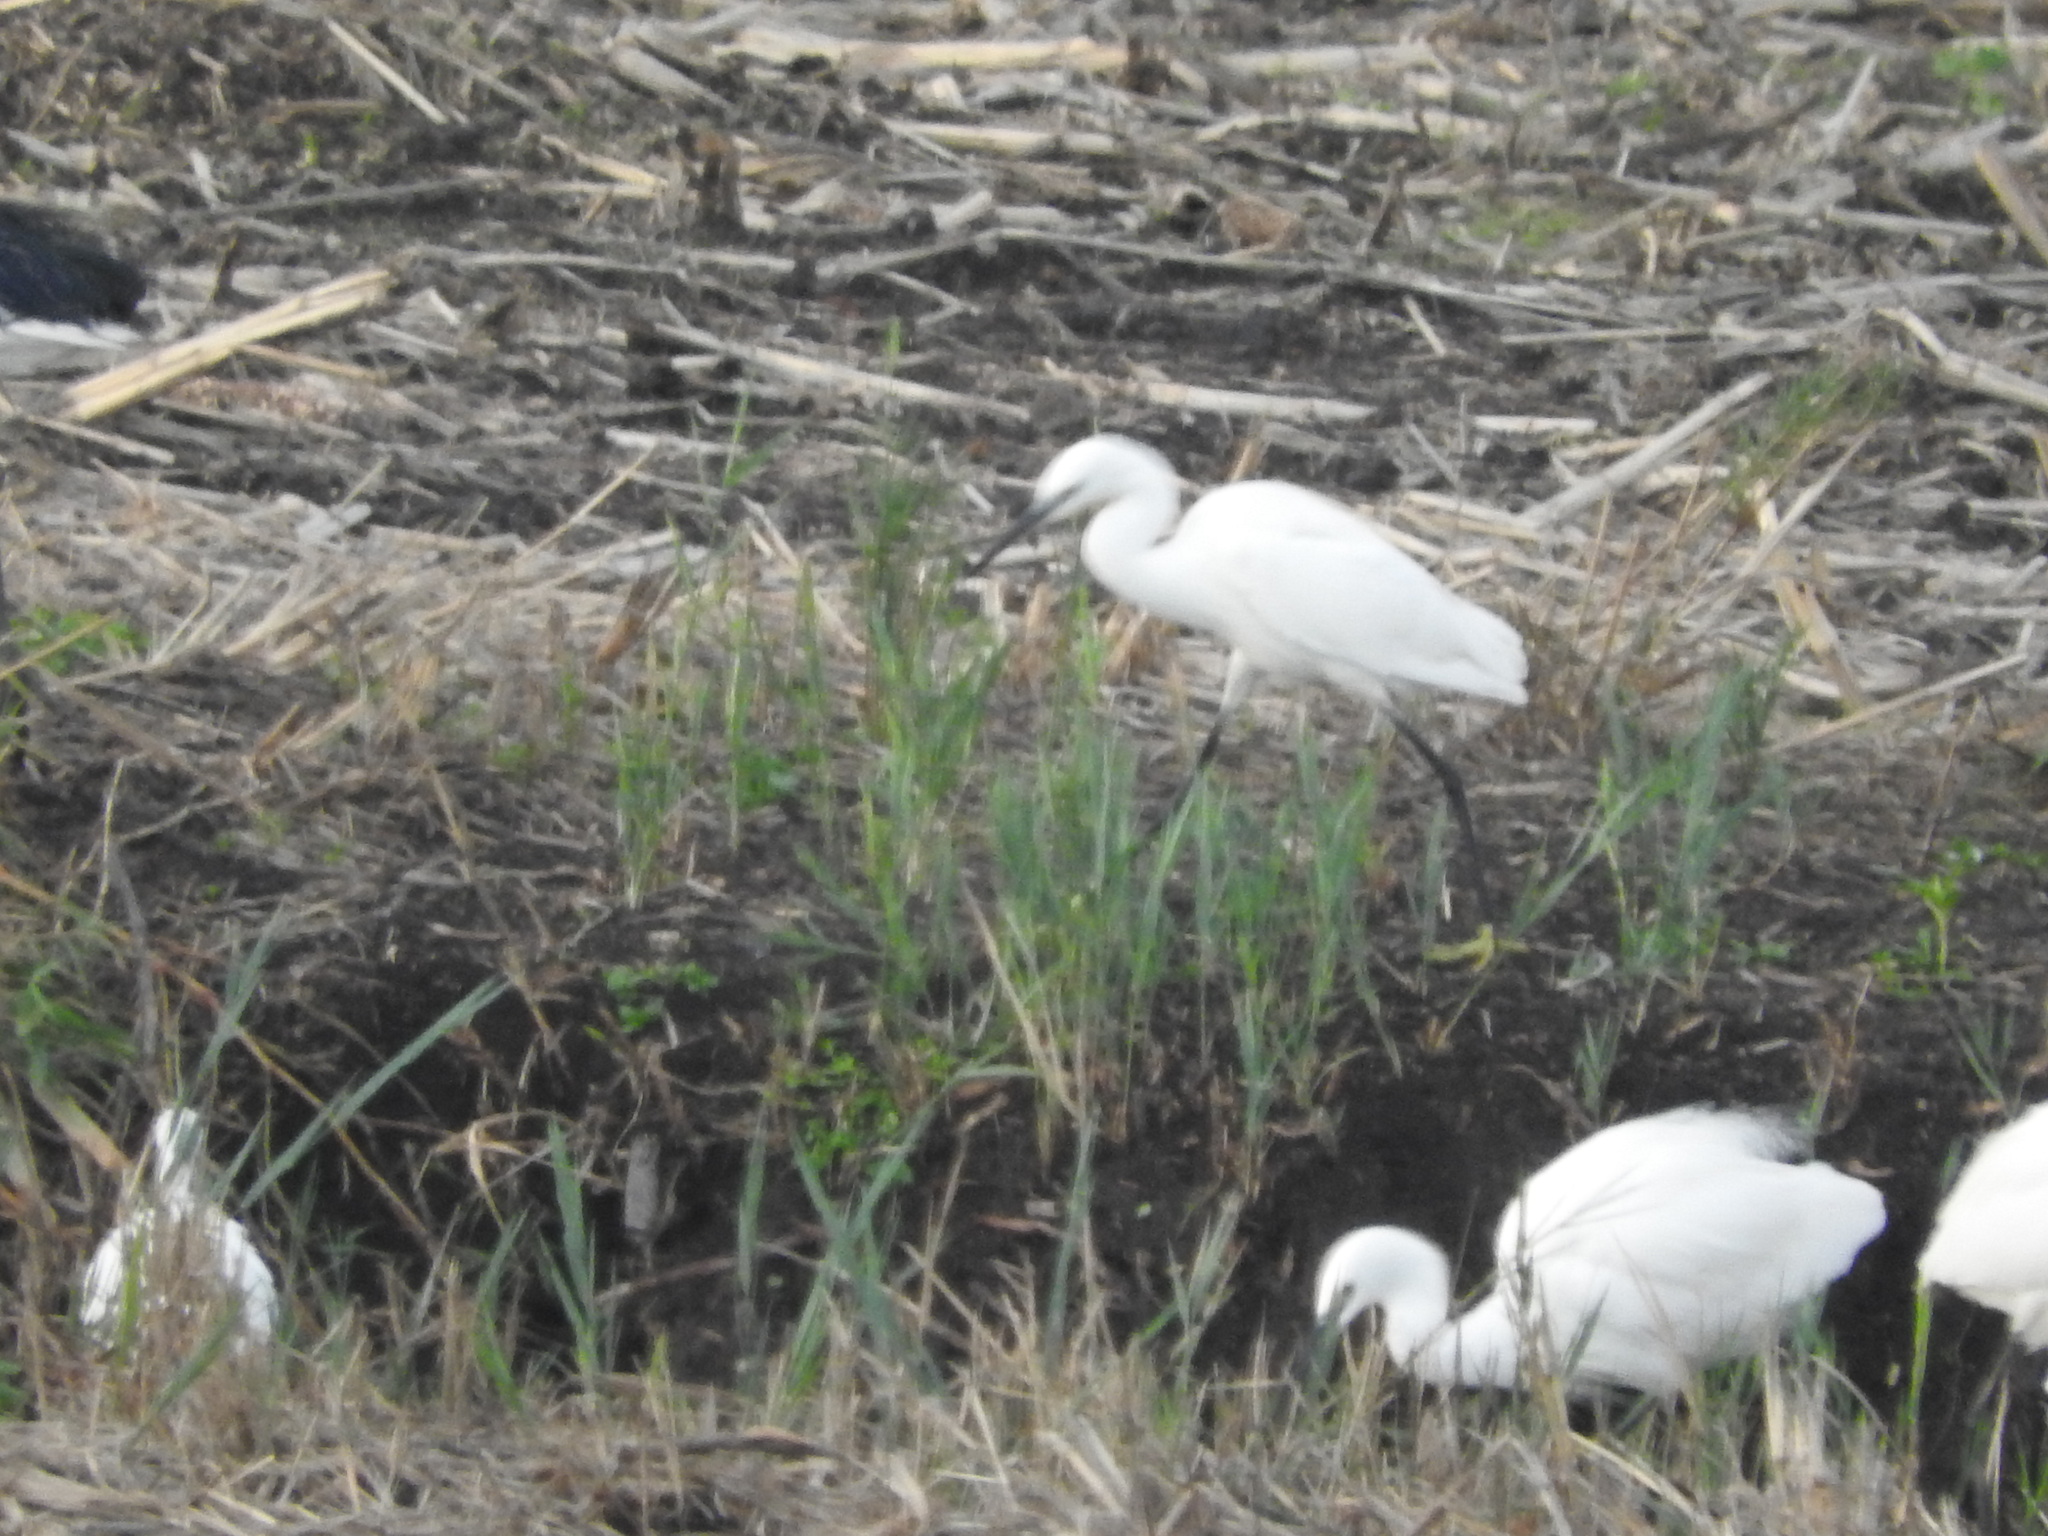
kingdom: Animalia
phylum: Chordata
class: Aves
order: Pelecaniformes
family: Ardeidae
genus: Egretta
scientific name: Egretta garzetta
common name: Little egret
